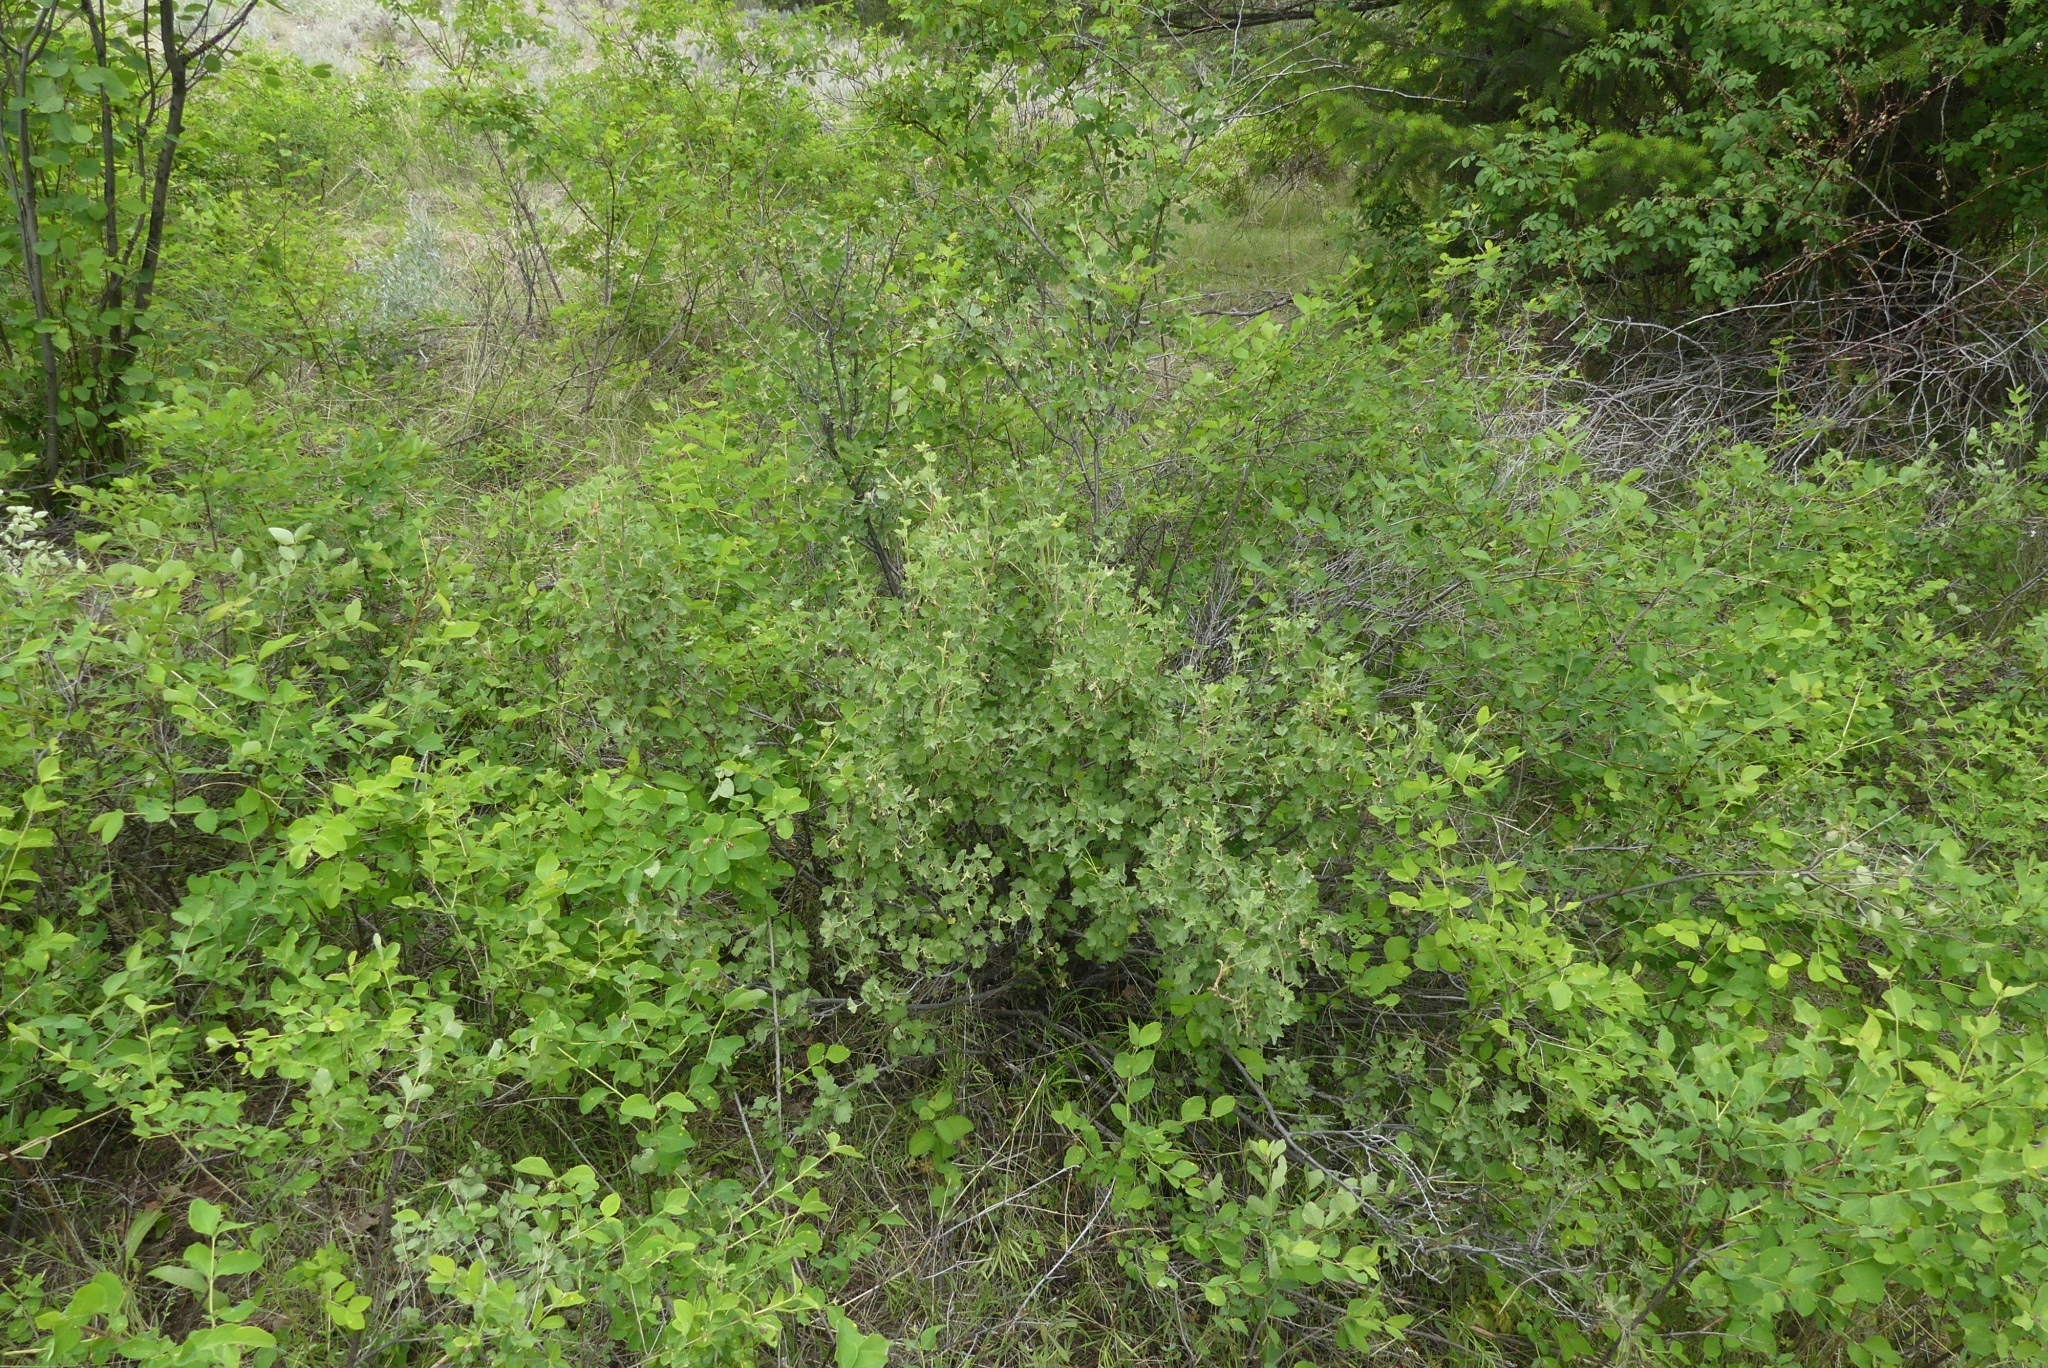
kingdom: Plantae
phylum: Tracheophyta
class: Magnoliopsida
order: Saxifragales
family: Grossulariaceae
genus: Ribes
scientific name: Ribes cereum
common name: Wax currant
